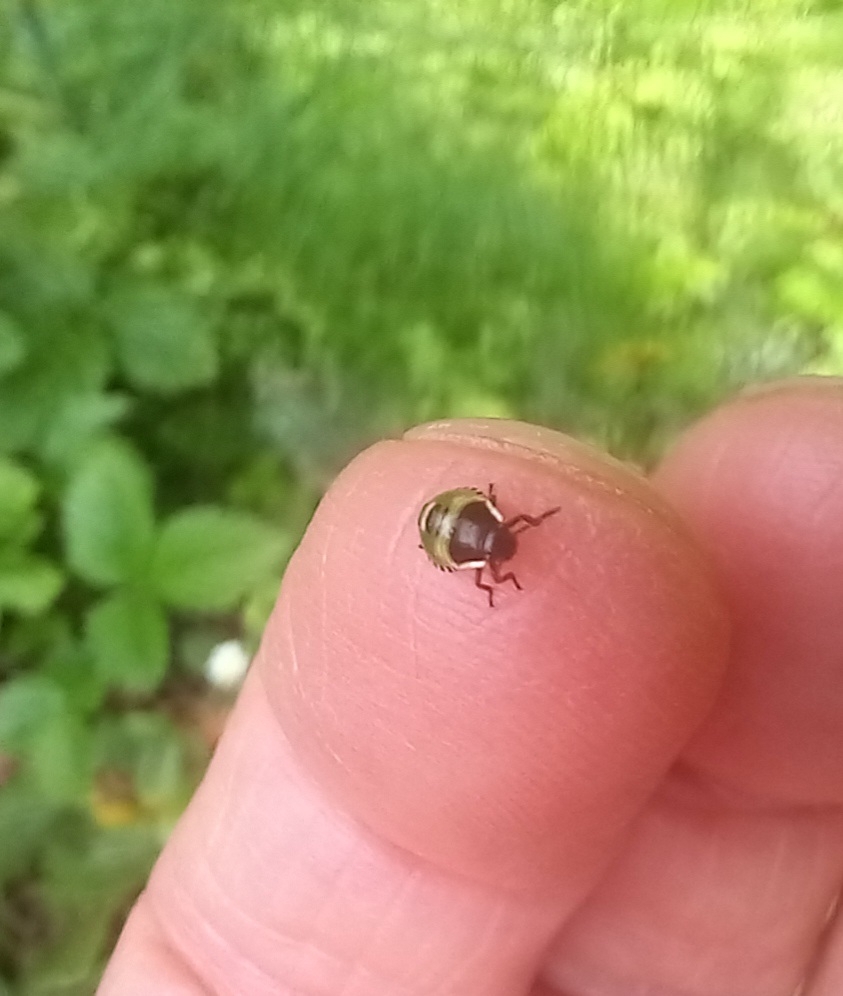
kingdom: Animalia
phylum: Arthropoda
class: Insecta
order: Hemiptera
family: Pentatomidae
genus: Palomena
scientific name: Palomena prasina
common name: Green shieldbug
